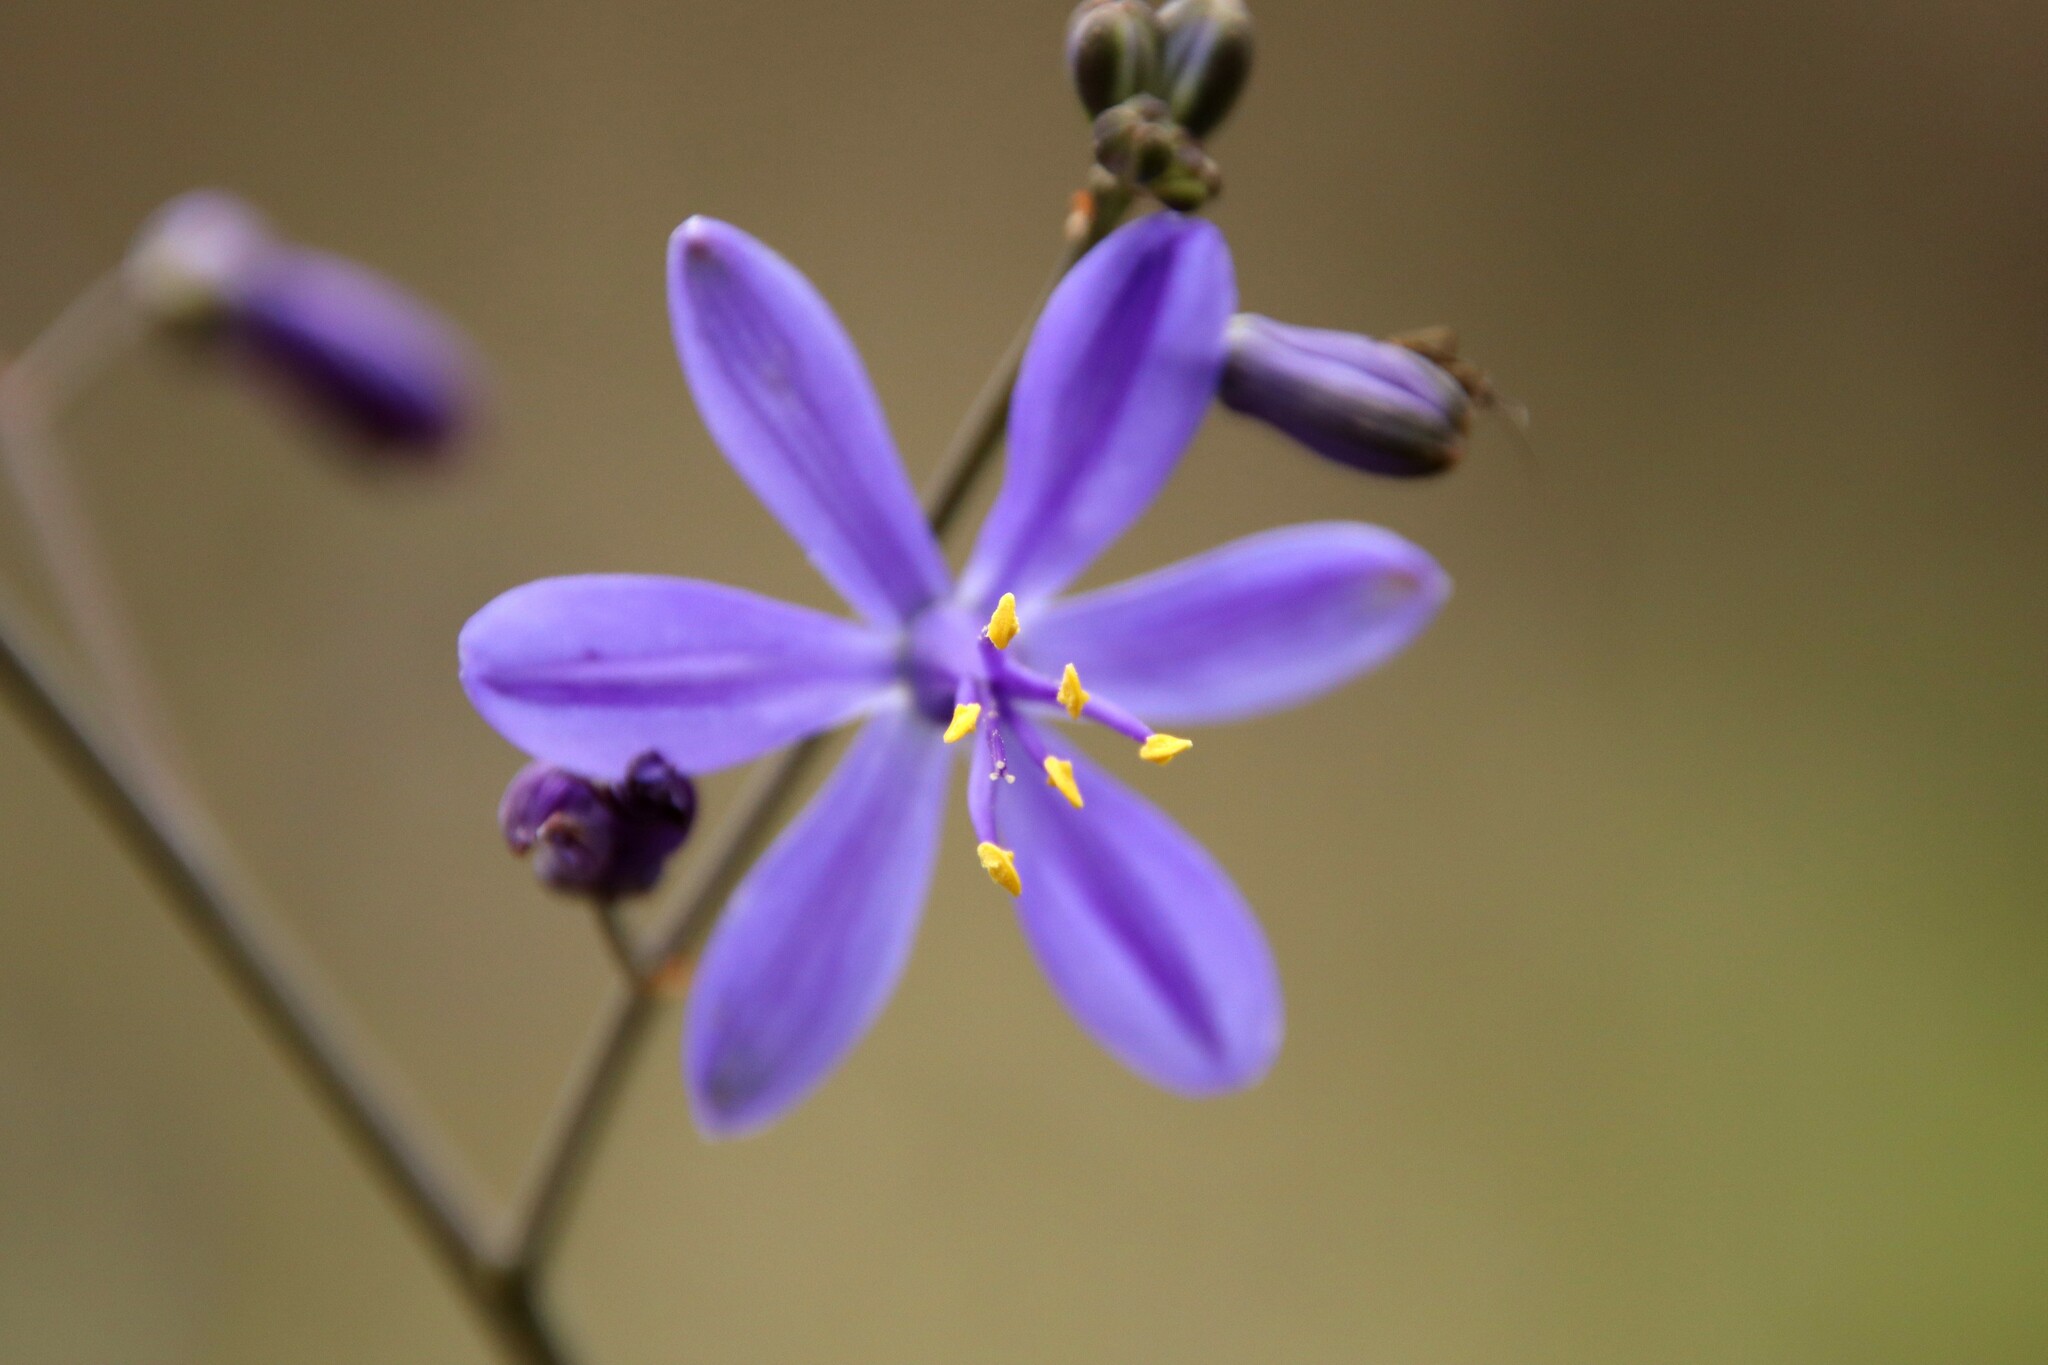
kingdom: Plantae
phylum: Tracheophyta
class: Liliopsida
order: Asparagales
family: Asphodelaceae
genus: Pasithea
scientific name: Pasithea caerulea
